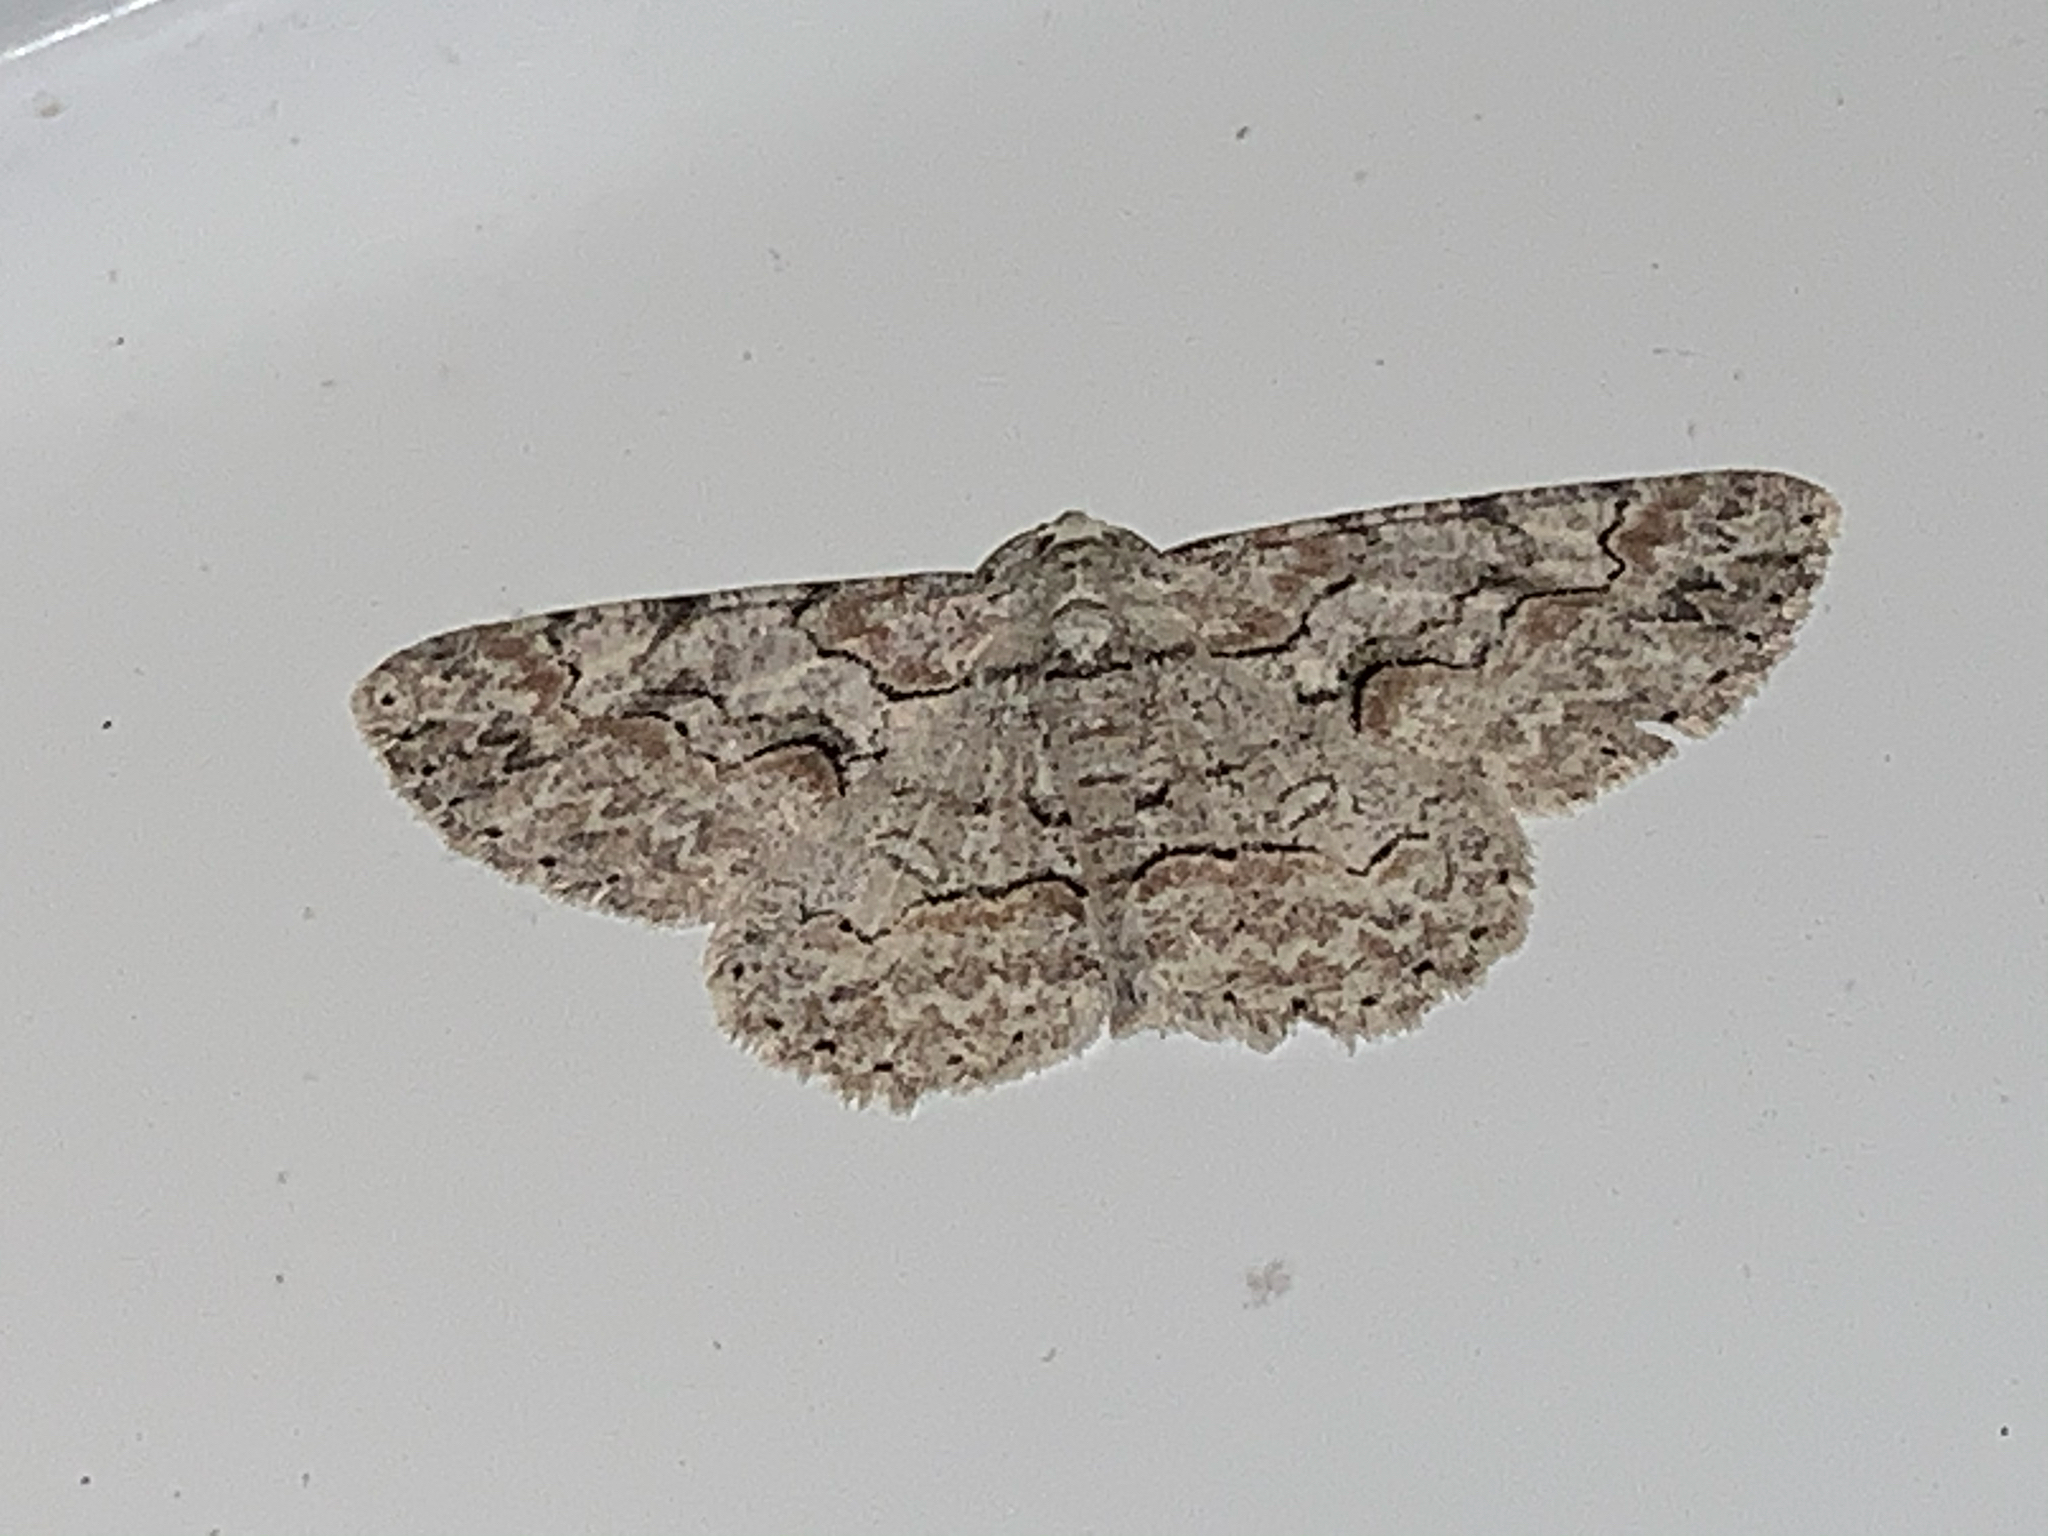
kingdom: Animalia
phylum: Arthropoda
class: Insecta
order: Lepidoptera
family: Geometridae
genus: Iridopsis
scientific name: Iridopsis defectaria
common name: Brown-shaded gray
